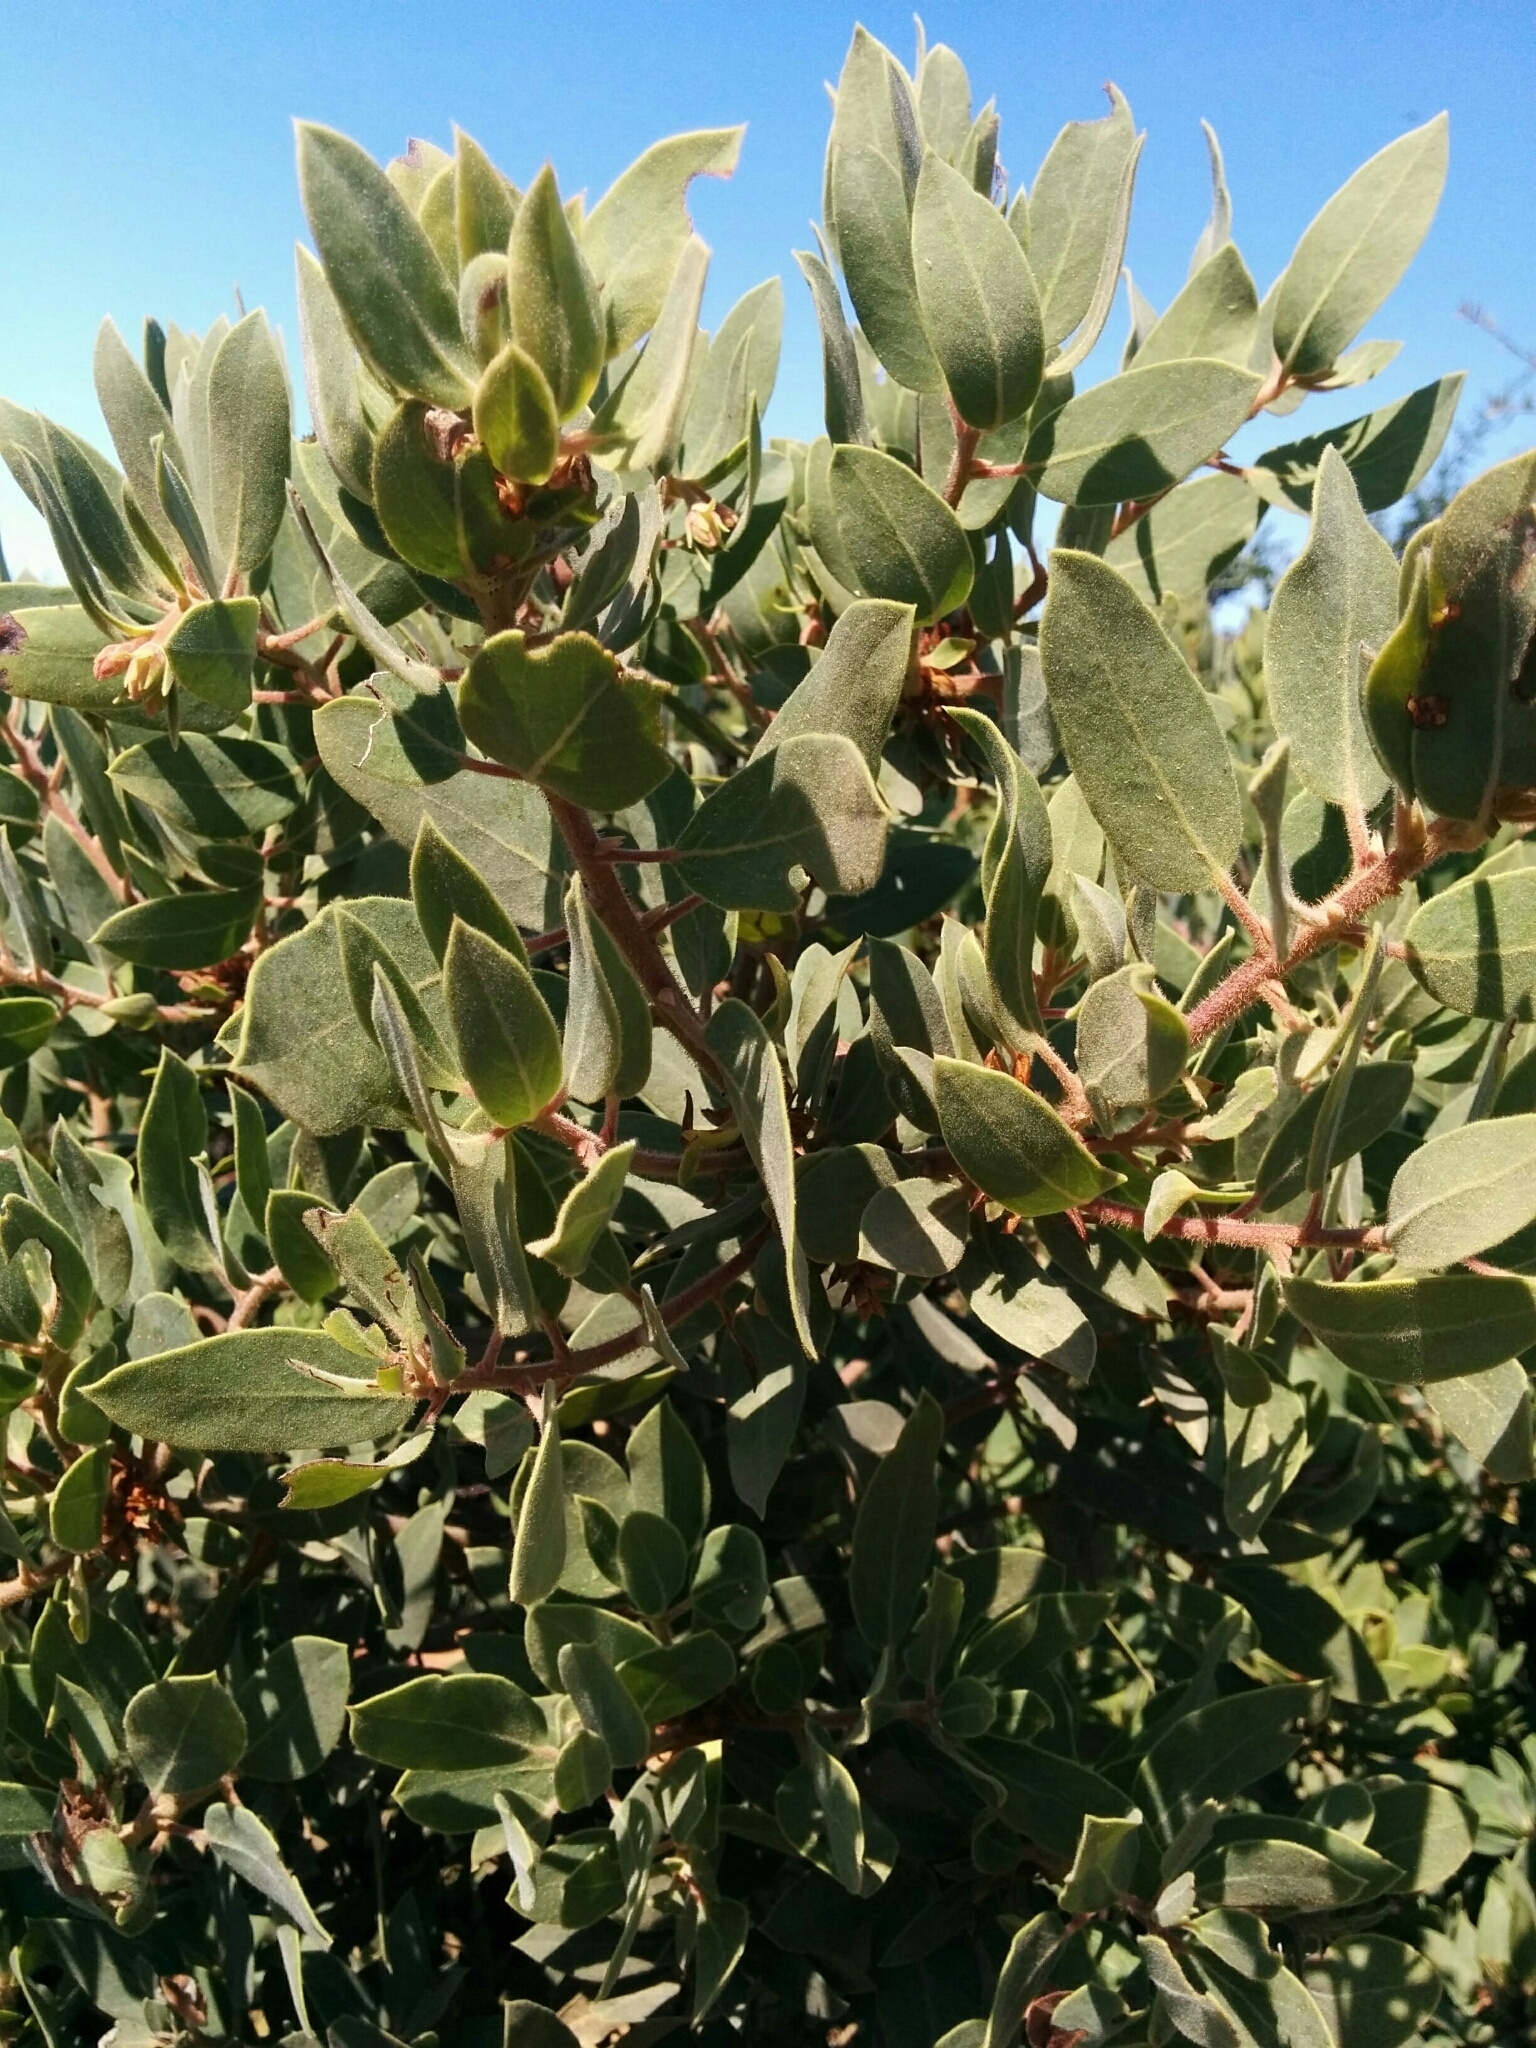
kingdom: Plantae
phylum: Tracheophyta
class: Magnoliopsida
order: Ericales
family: Ericaceae
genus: Arctostaphylos
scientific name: Arctostaphylos glandulosa
